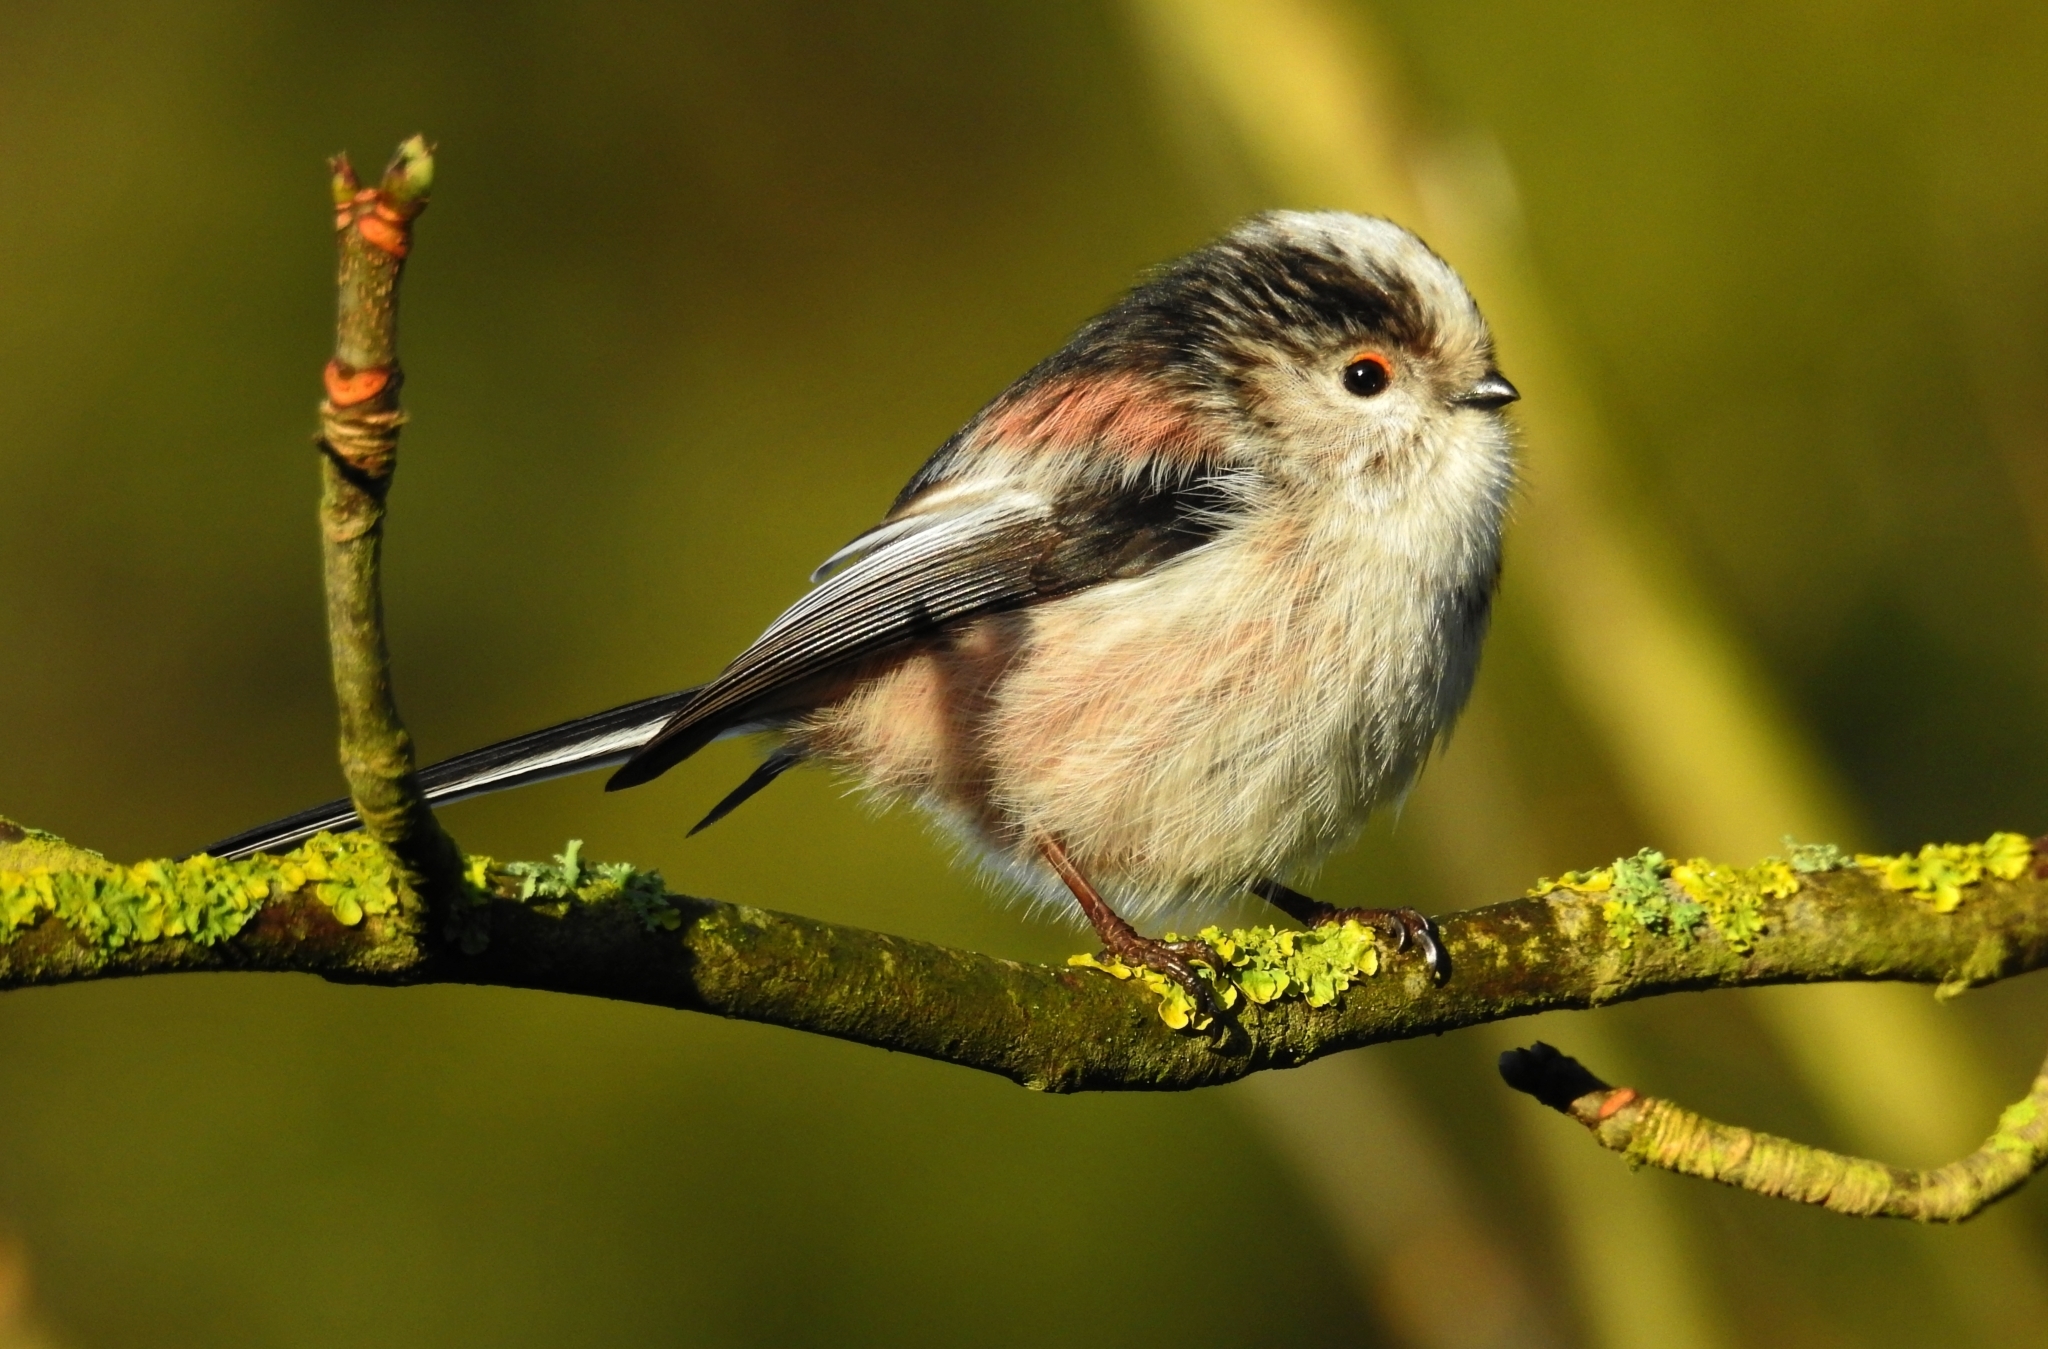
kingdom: Animalia
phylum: Chordata
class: Aves
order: Passeriformes
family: Aegithalidae
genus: Aegithalos
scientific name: Aegithalos caudatus
